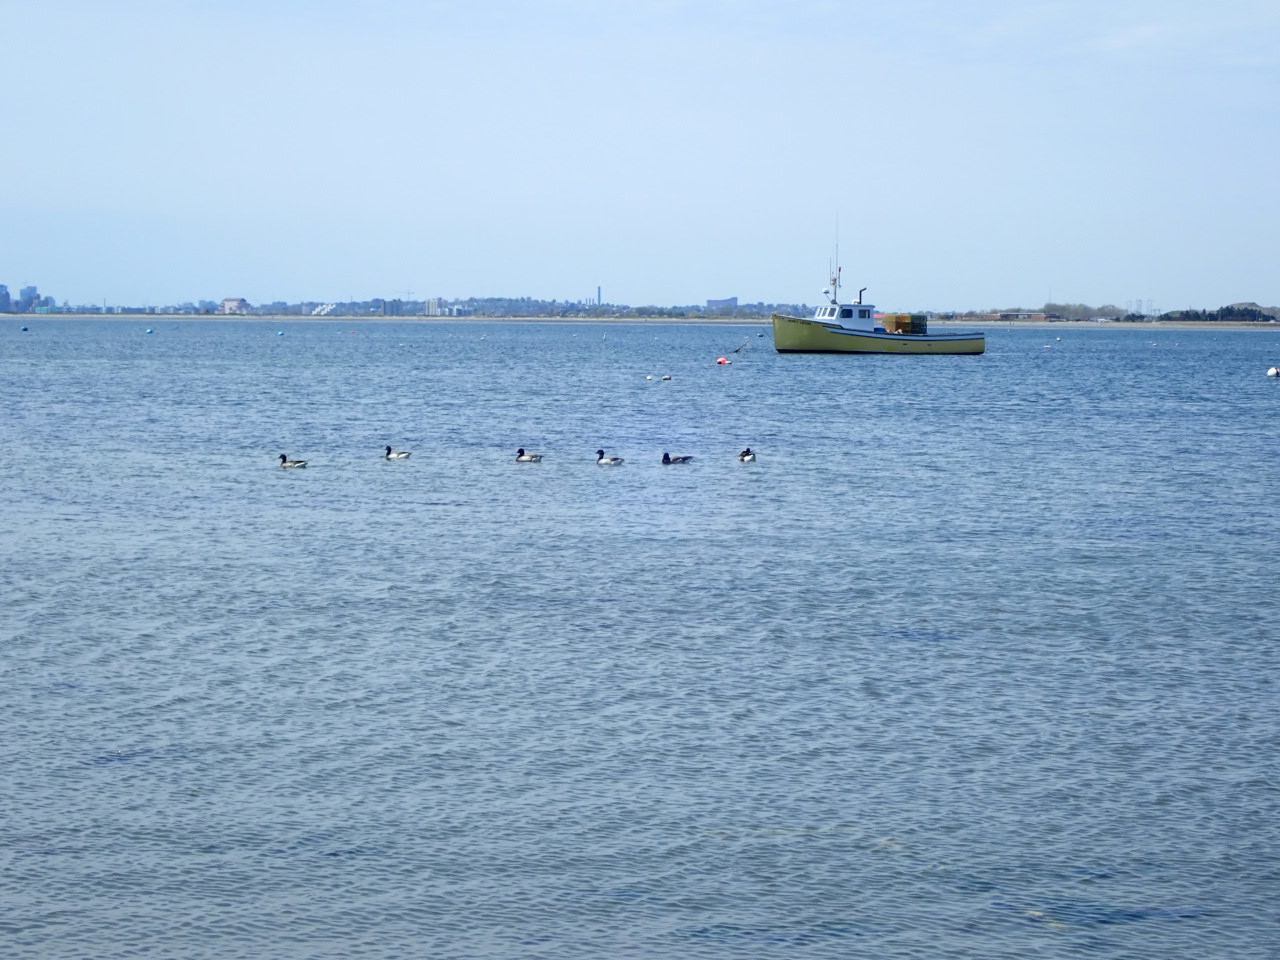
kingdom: Animalia
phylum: Chordata
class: Aves
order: Anseriformes
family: Anatidae
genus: Branta
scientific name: Branta bernicla
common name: Brant goose
